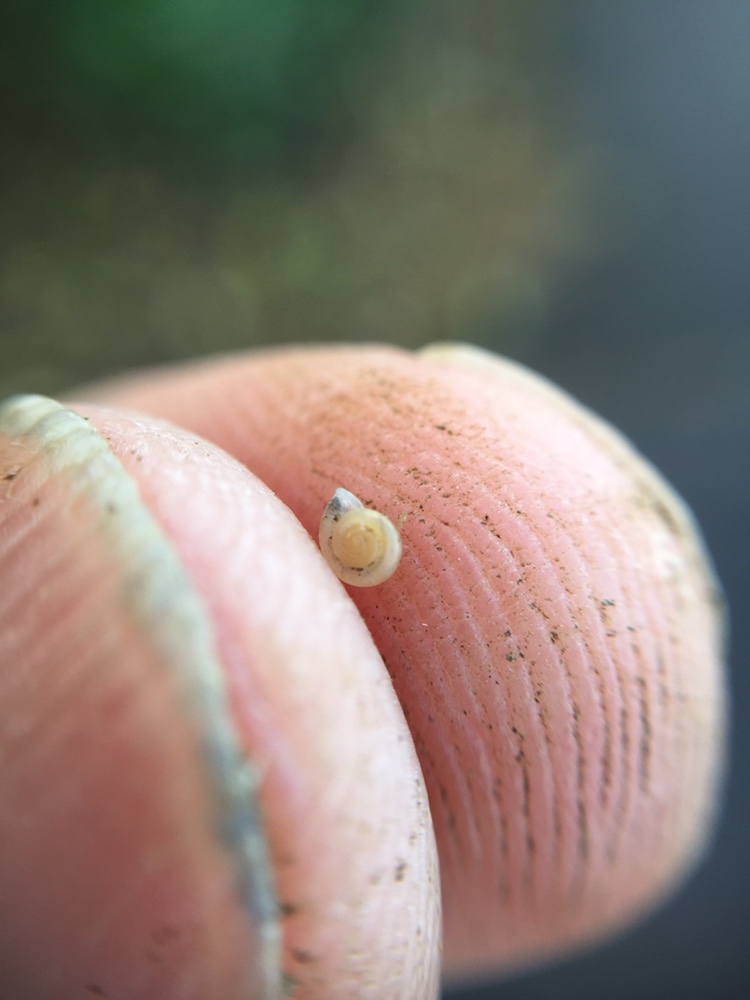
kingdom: Animalia
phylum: Mollusca
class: Gastropoda
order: Stylommatophora
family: Valloniidae
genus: Vallonia
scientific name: Vallonia excentrica
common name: Eccentric grass snail
